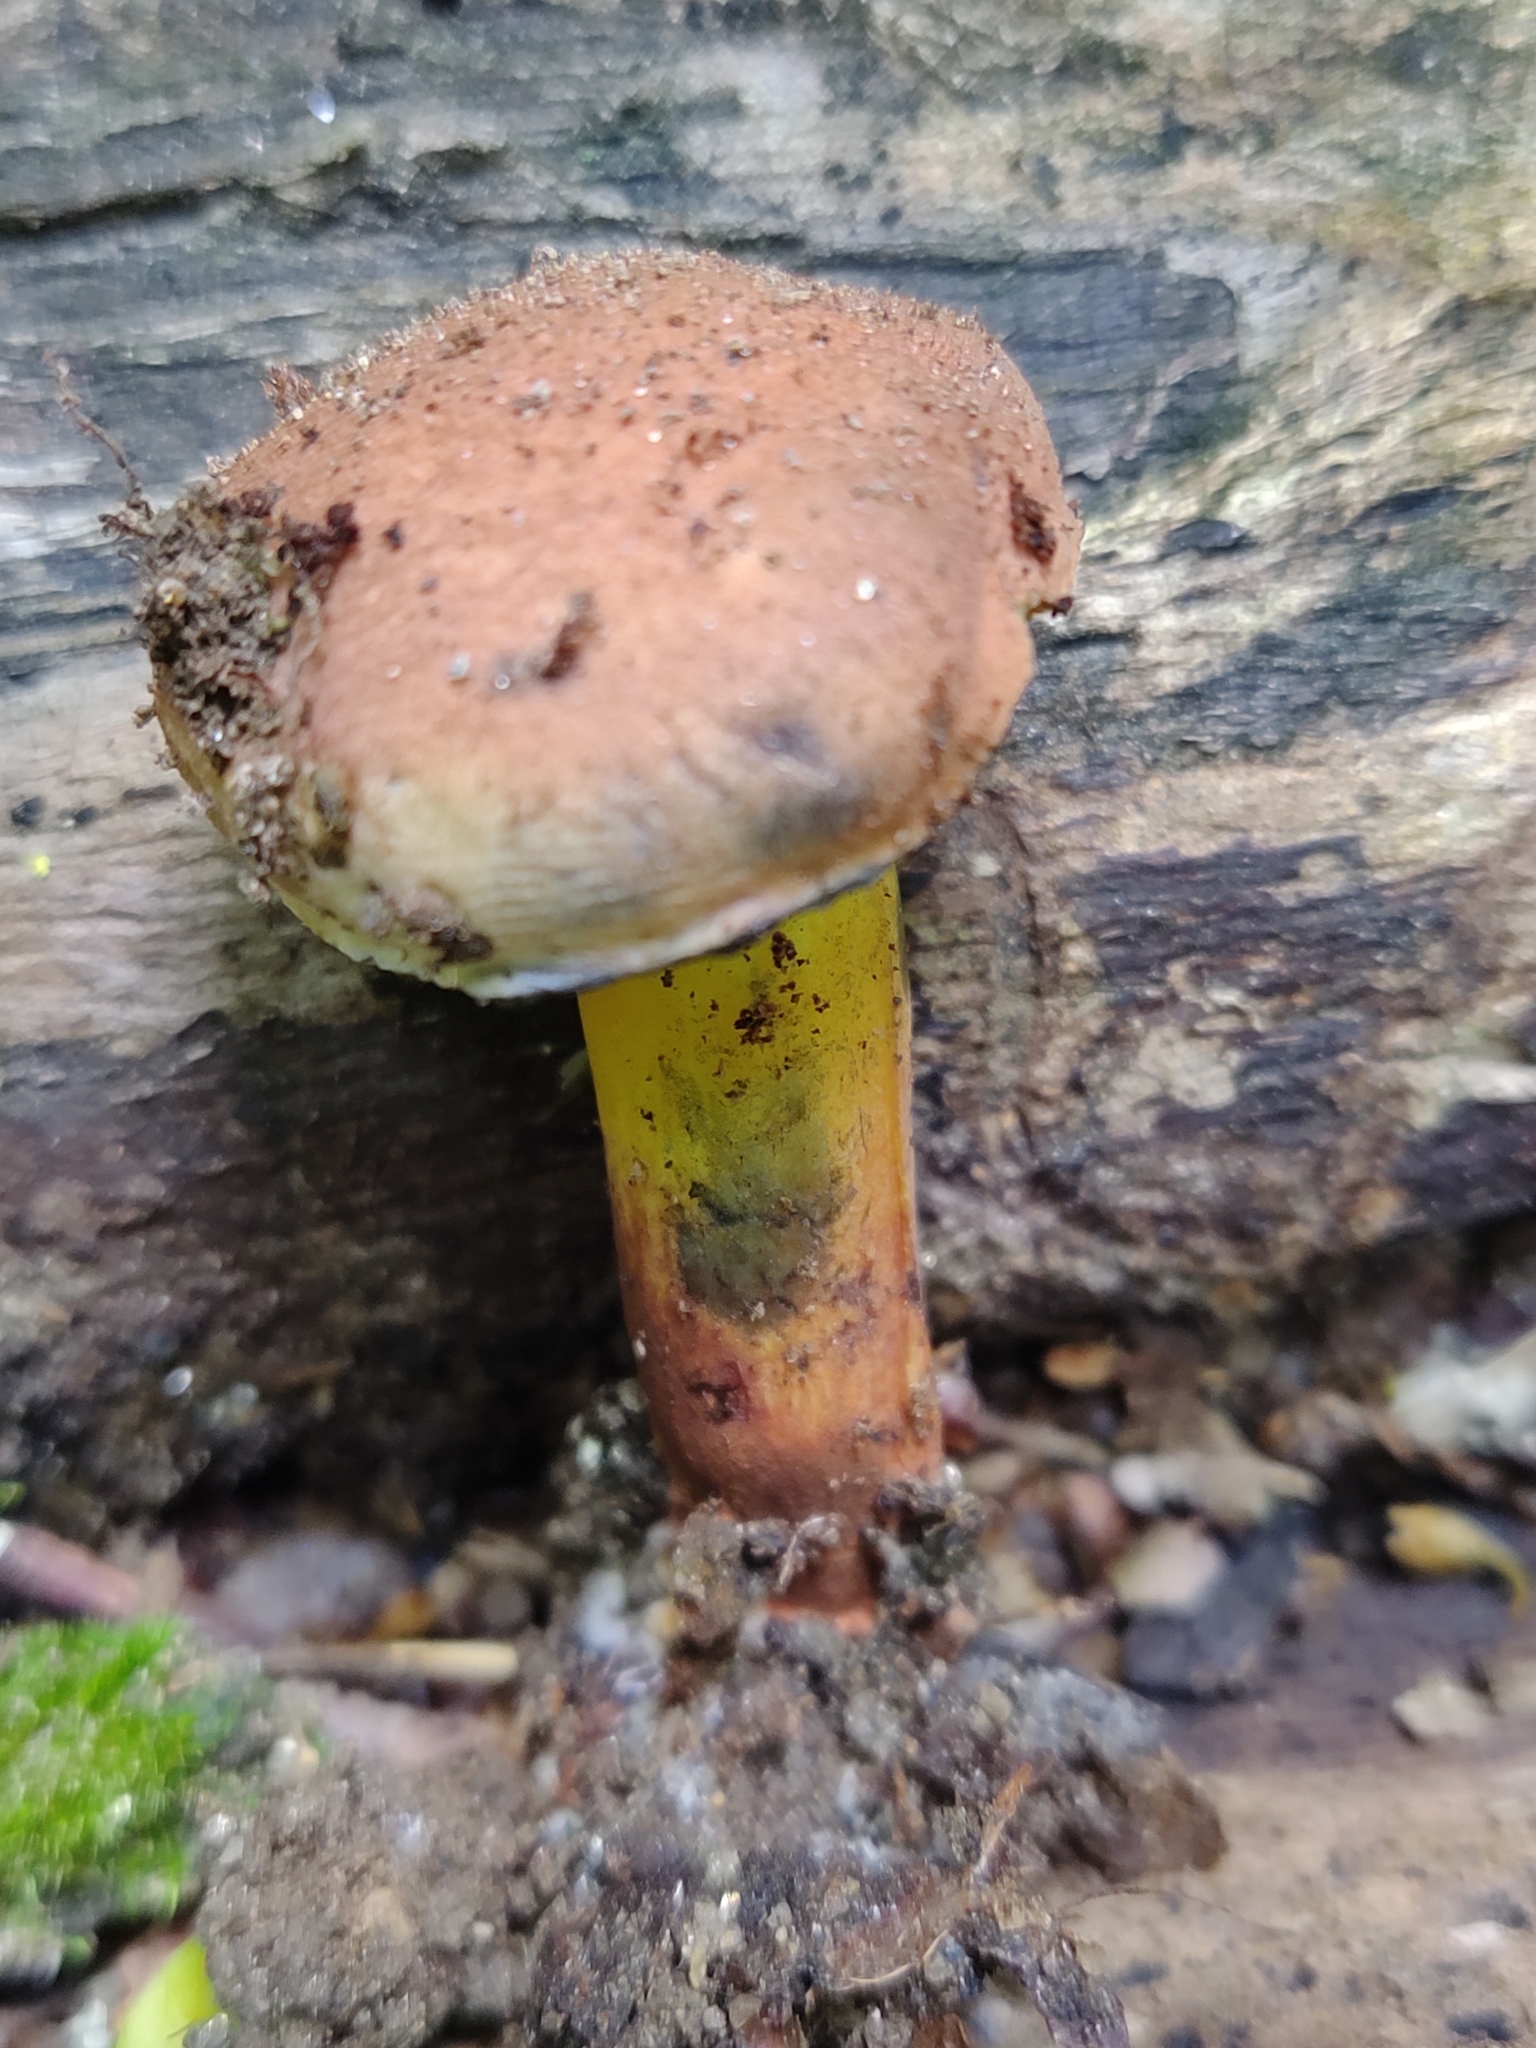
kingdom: Fungi
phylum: Basidiomycota
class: Agaricomycetes
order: Boletales
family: Boletaceae
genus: Cyanoboletus
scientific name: Cyanoboletus pulverulentus
